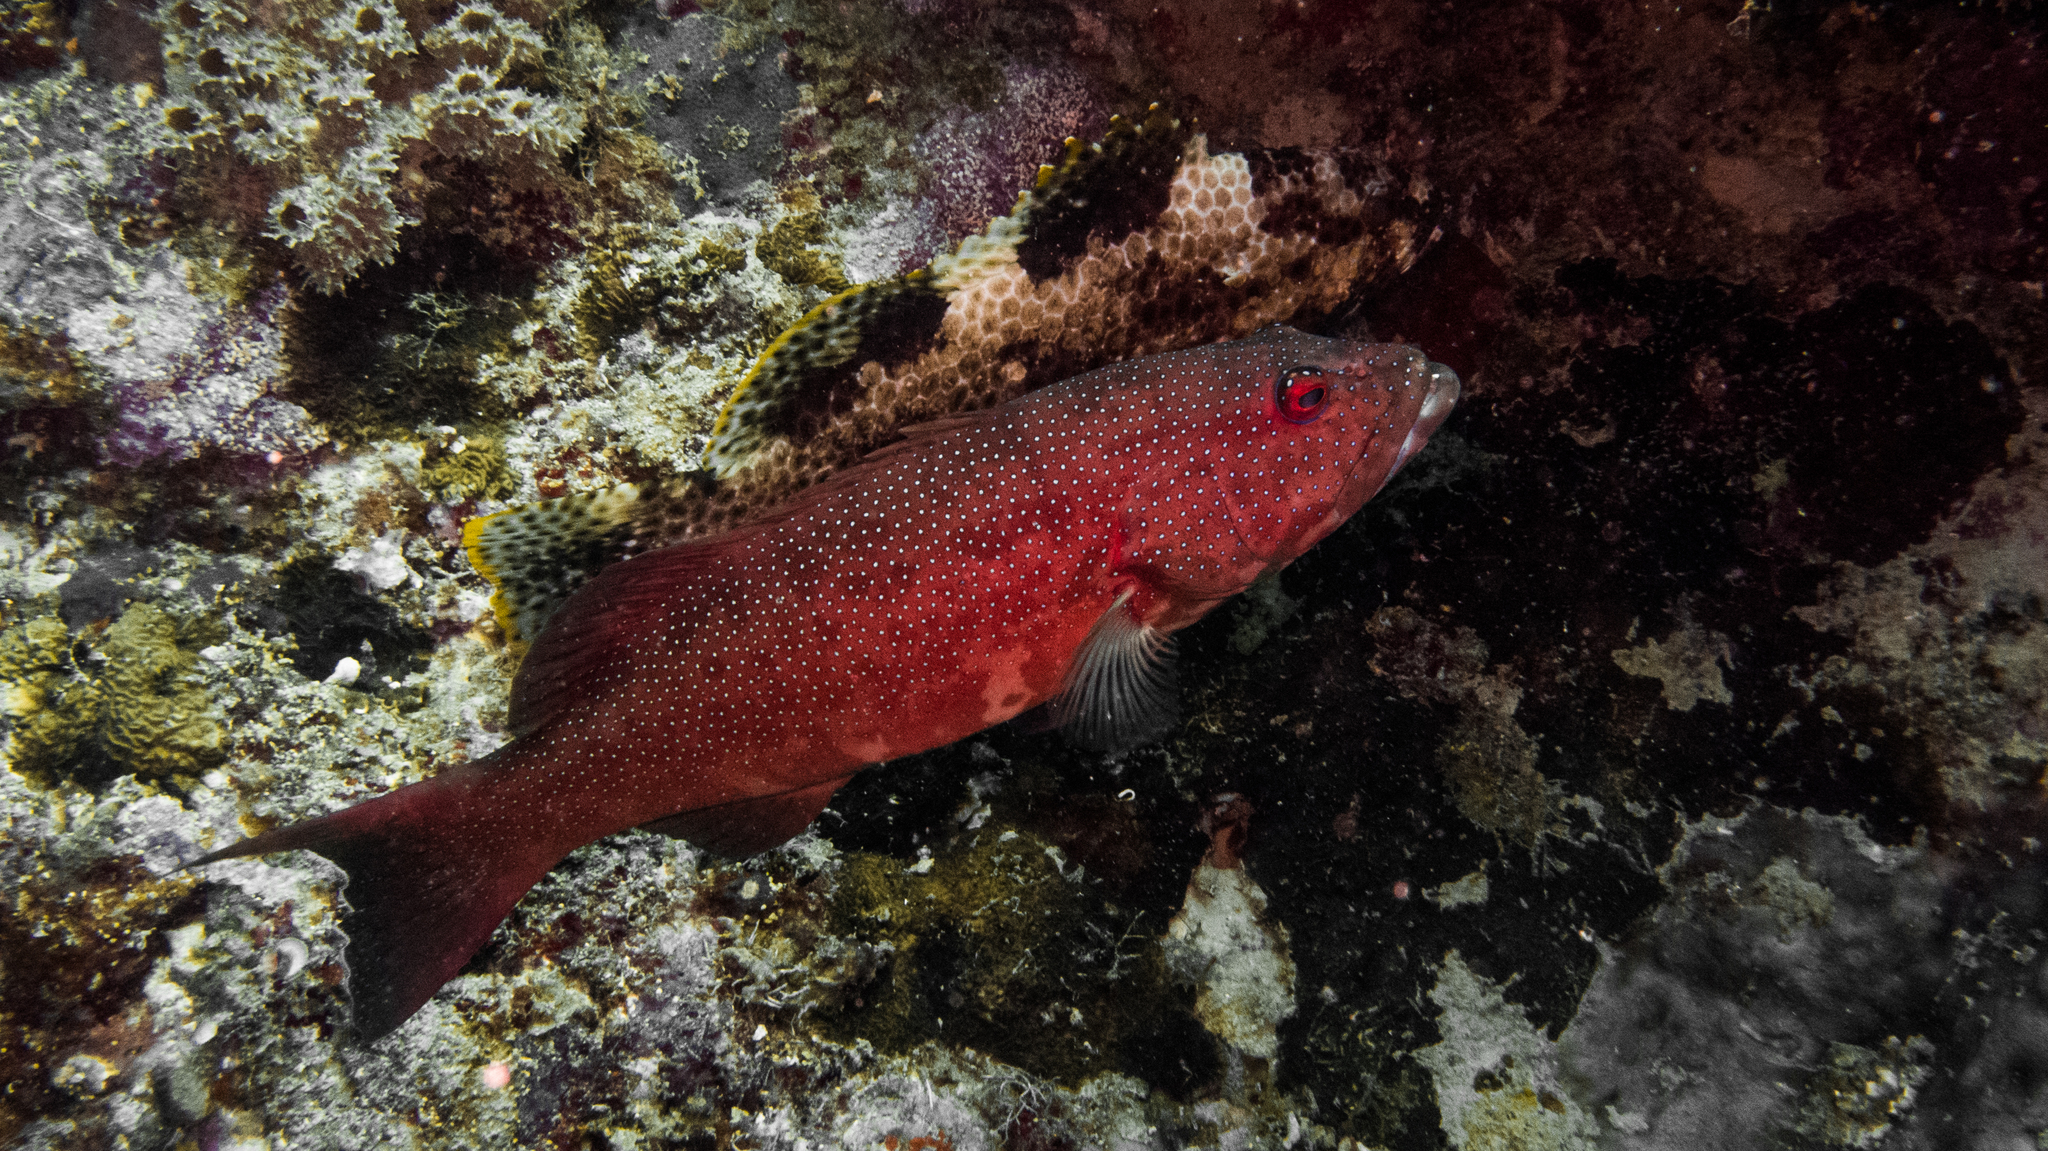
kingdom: Animalia
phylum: Chordata
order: Perciformes
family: Serranidae
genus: Plectropomus
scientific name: Plectropomus leopardus
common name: Coral trout
